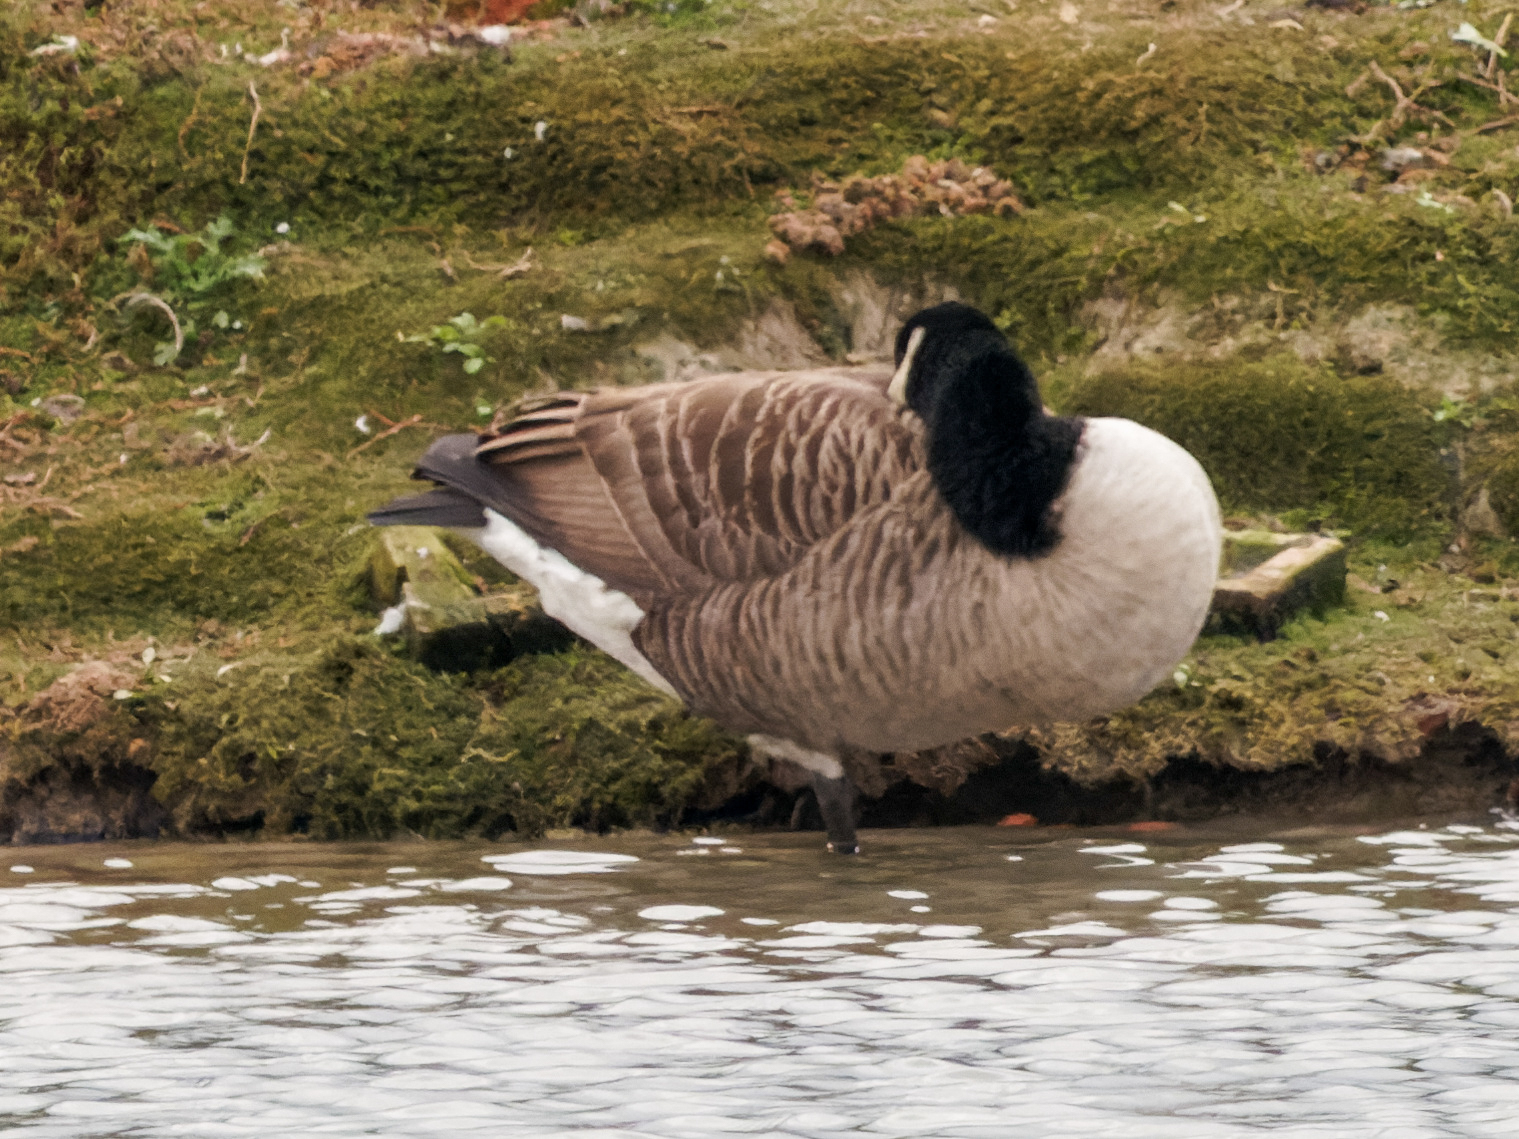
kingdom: Animalia
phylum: Chordata
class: Aves
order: Anseriformes
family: Anatidae
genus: Branta
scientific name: Branta canadensis
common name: Canada goose
